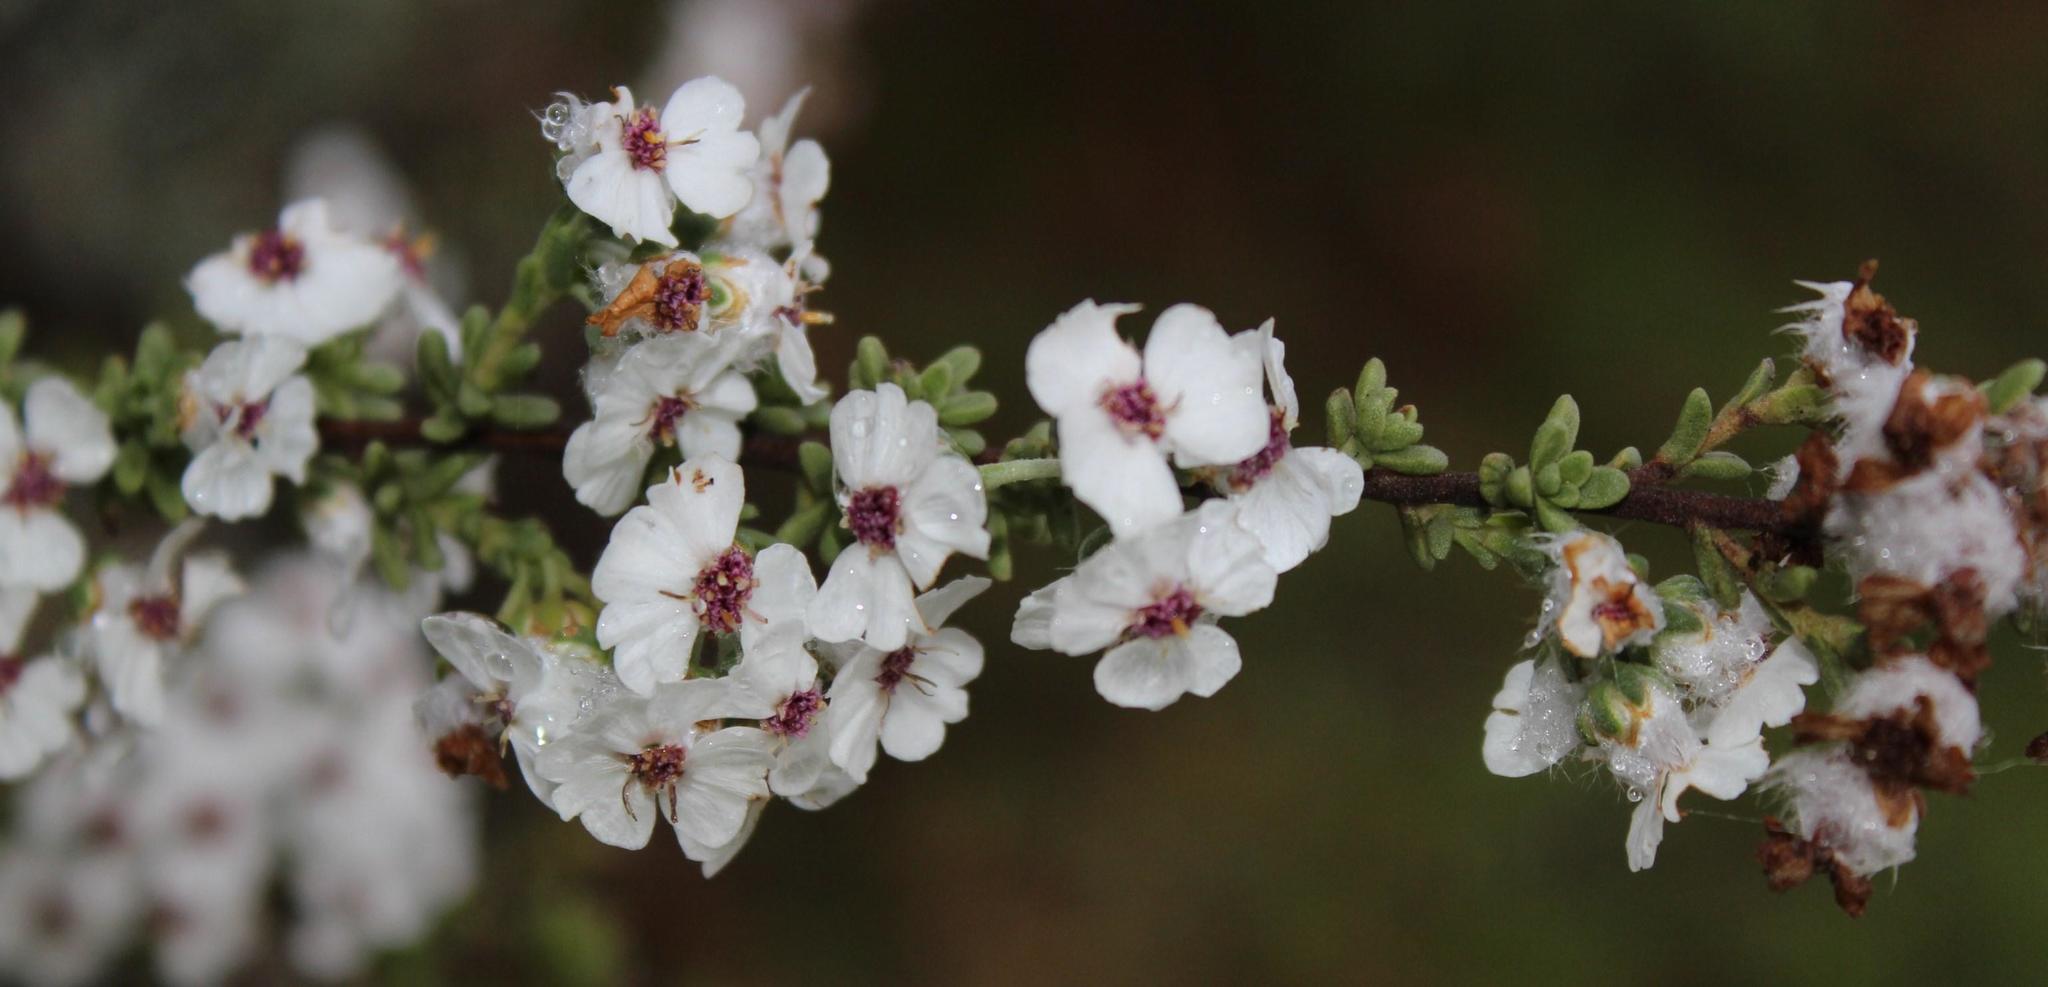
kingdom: Plantae
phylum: Tracheophyta
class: Magnoliopsida
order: Asterales
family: Asteraceae
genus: Eriocephalus
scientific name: Eriocephalus africanus
